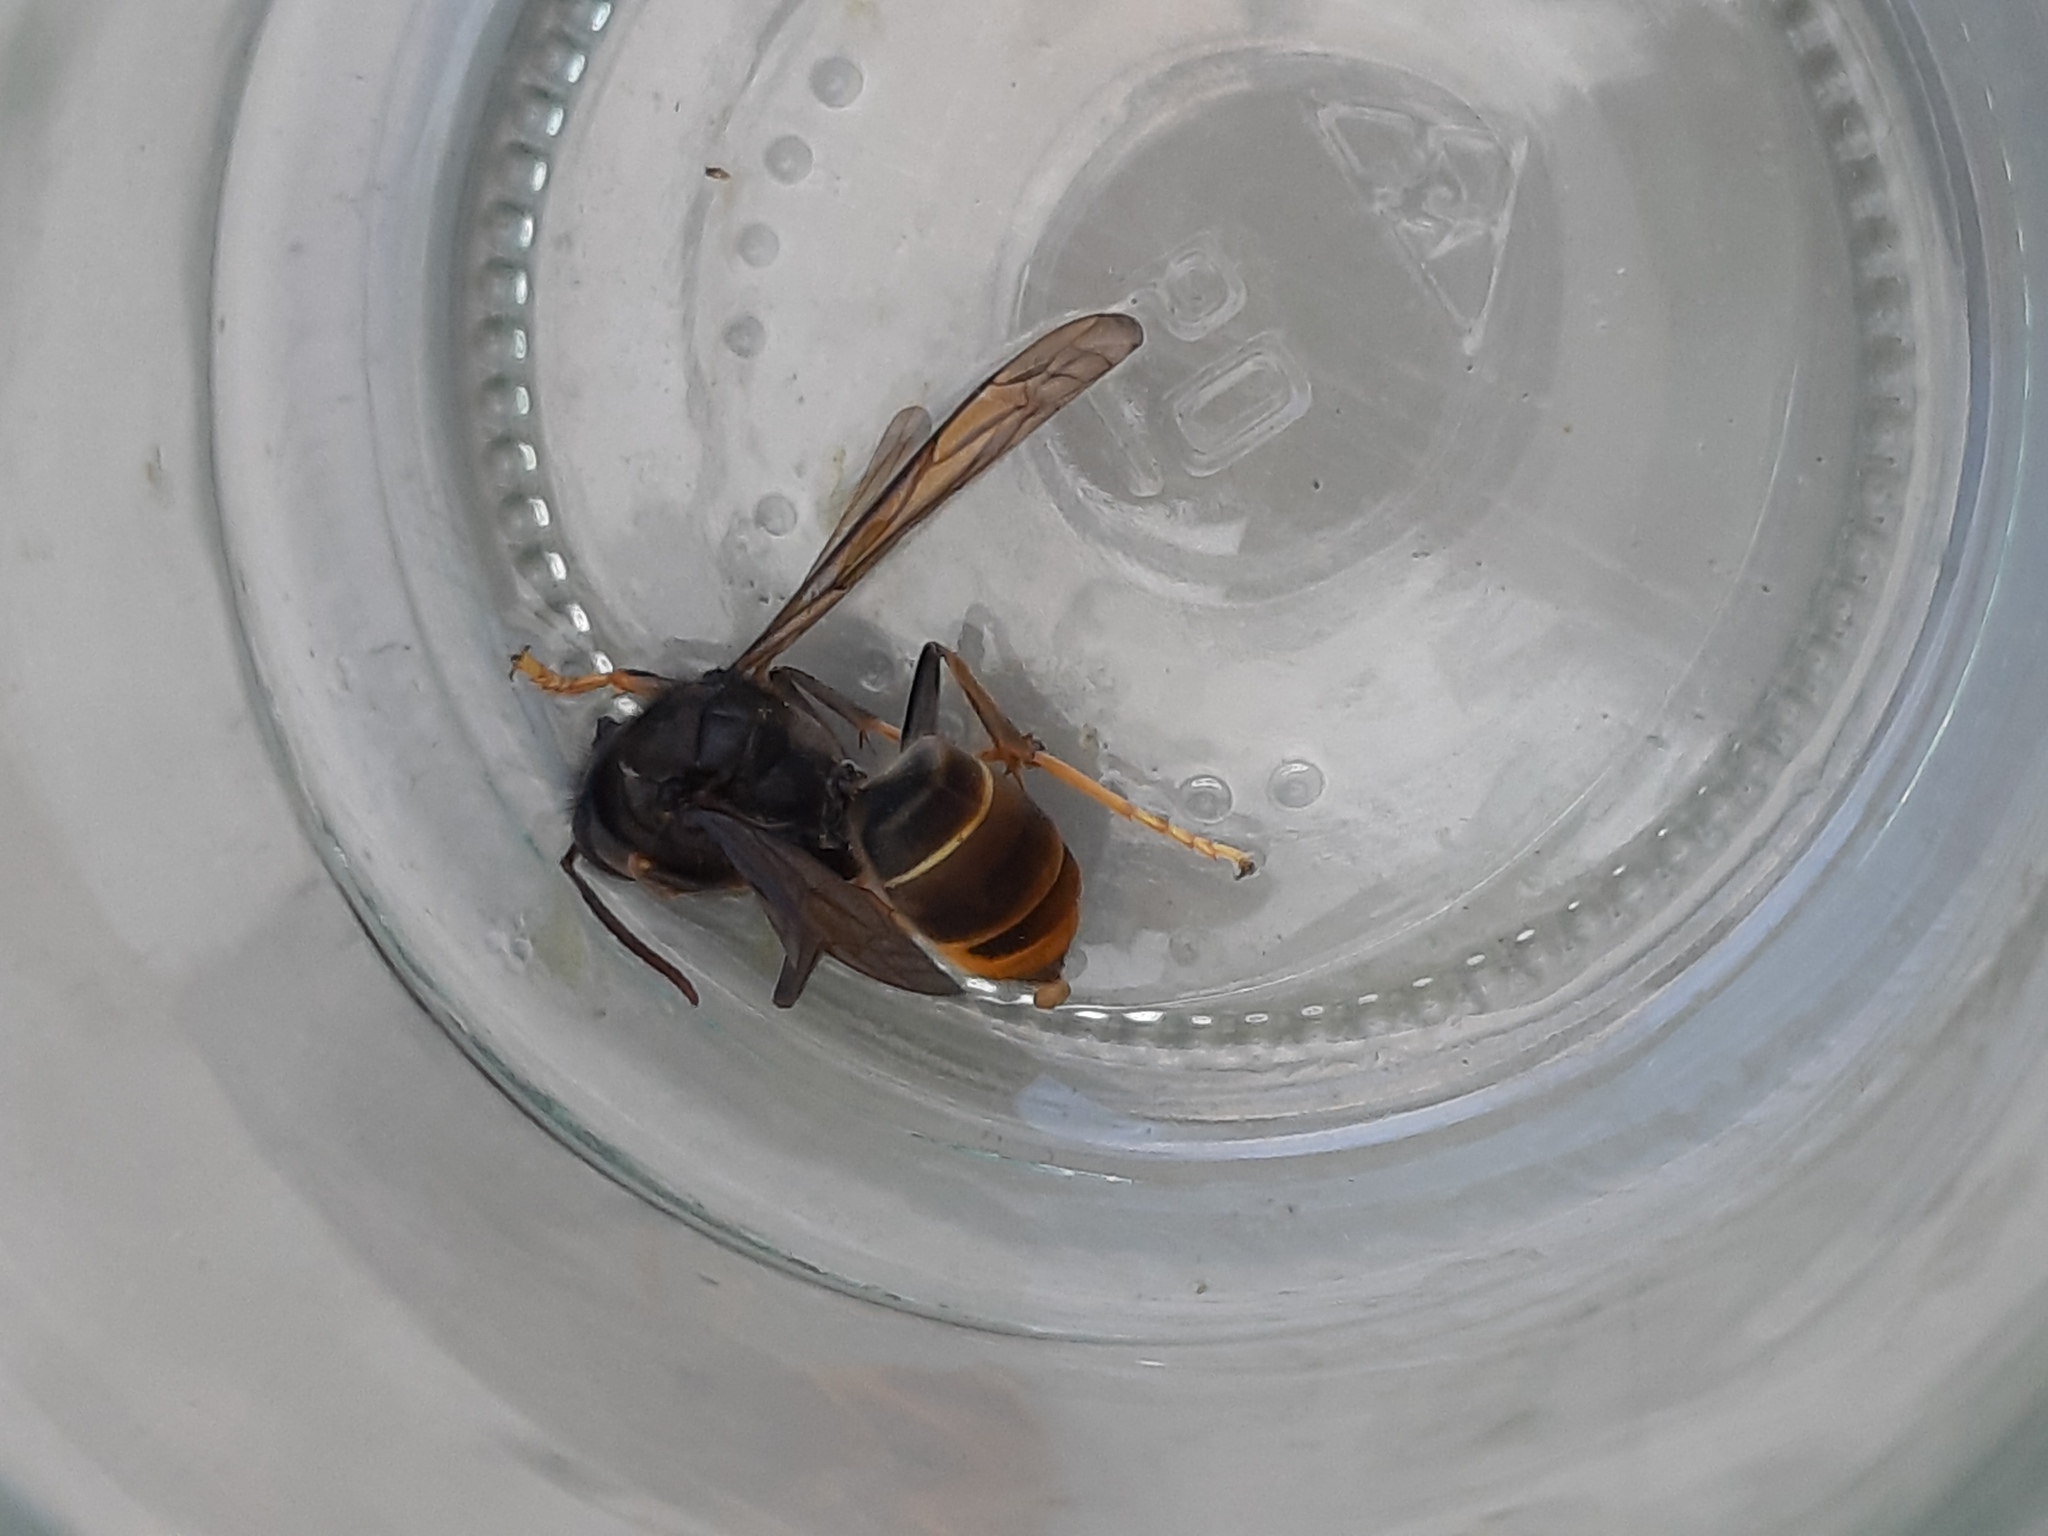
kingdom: Animalia
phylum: Arthropoda
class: Insecta
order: Hymenoptera
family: Vespidae
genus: Vespa
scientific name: Vespa velutina
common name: Asian hornet
